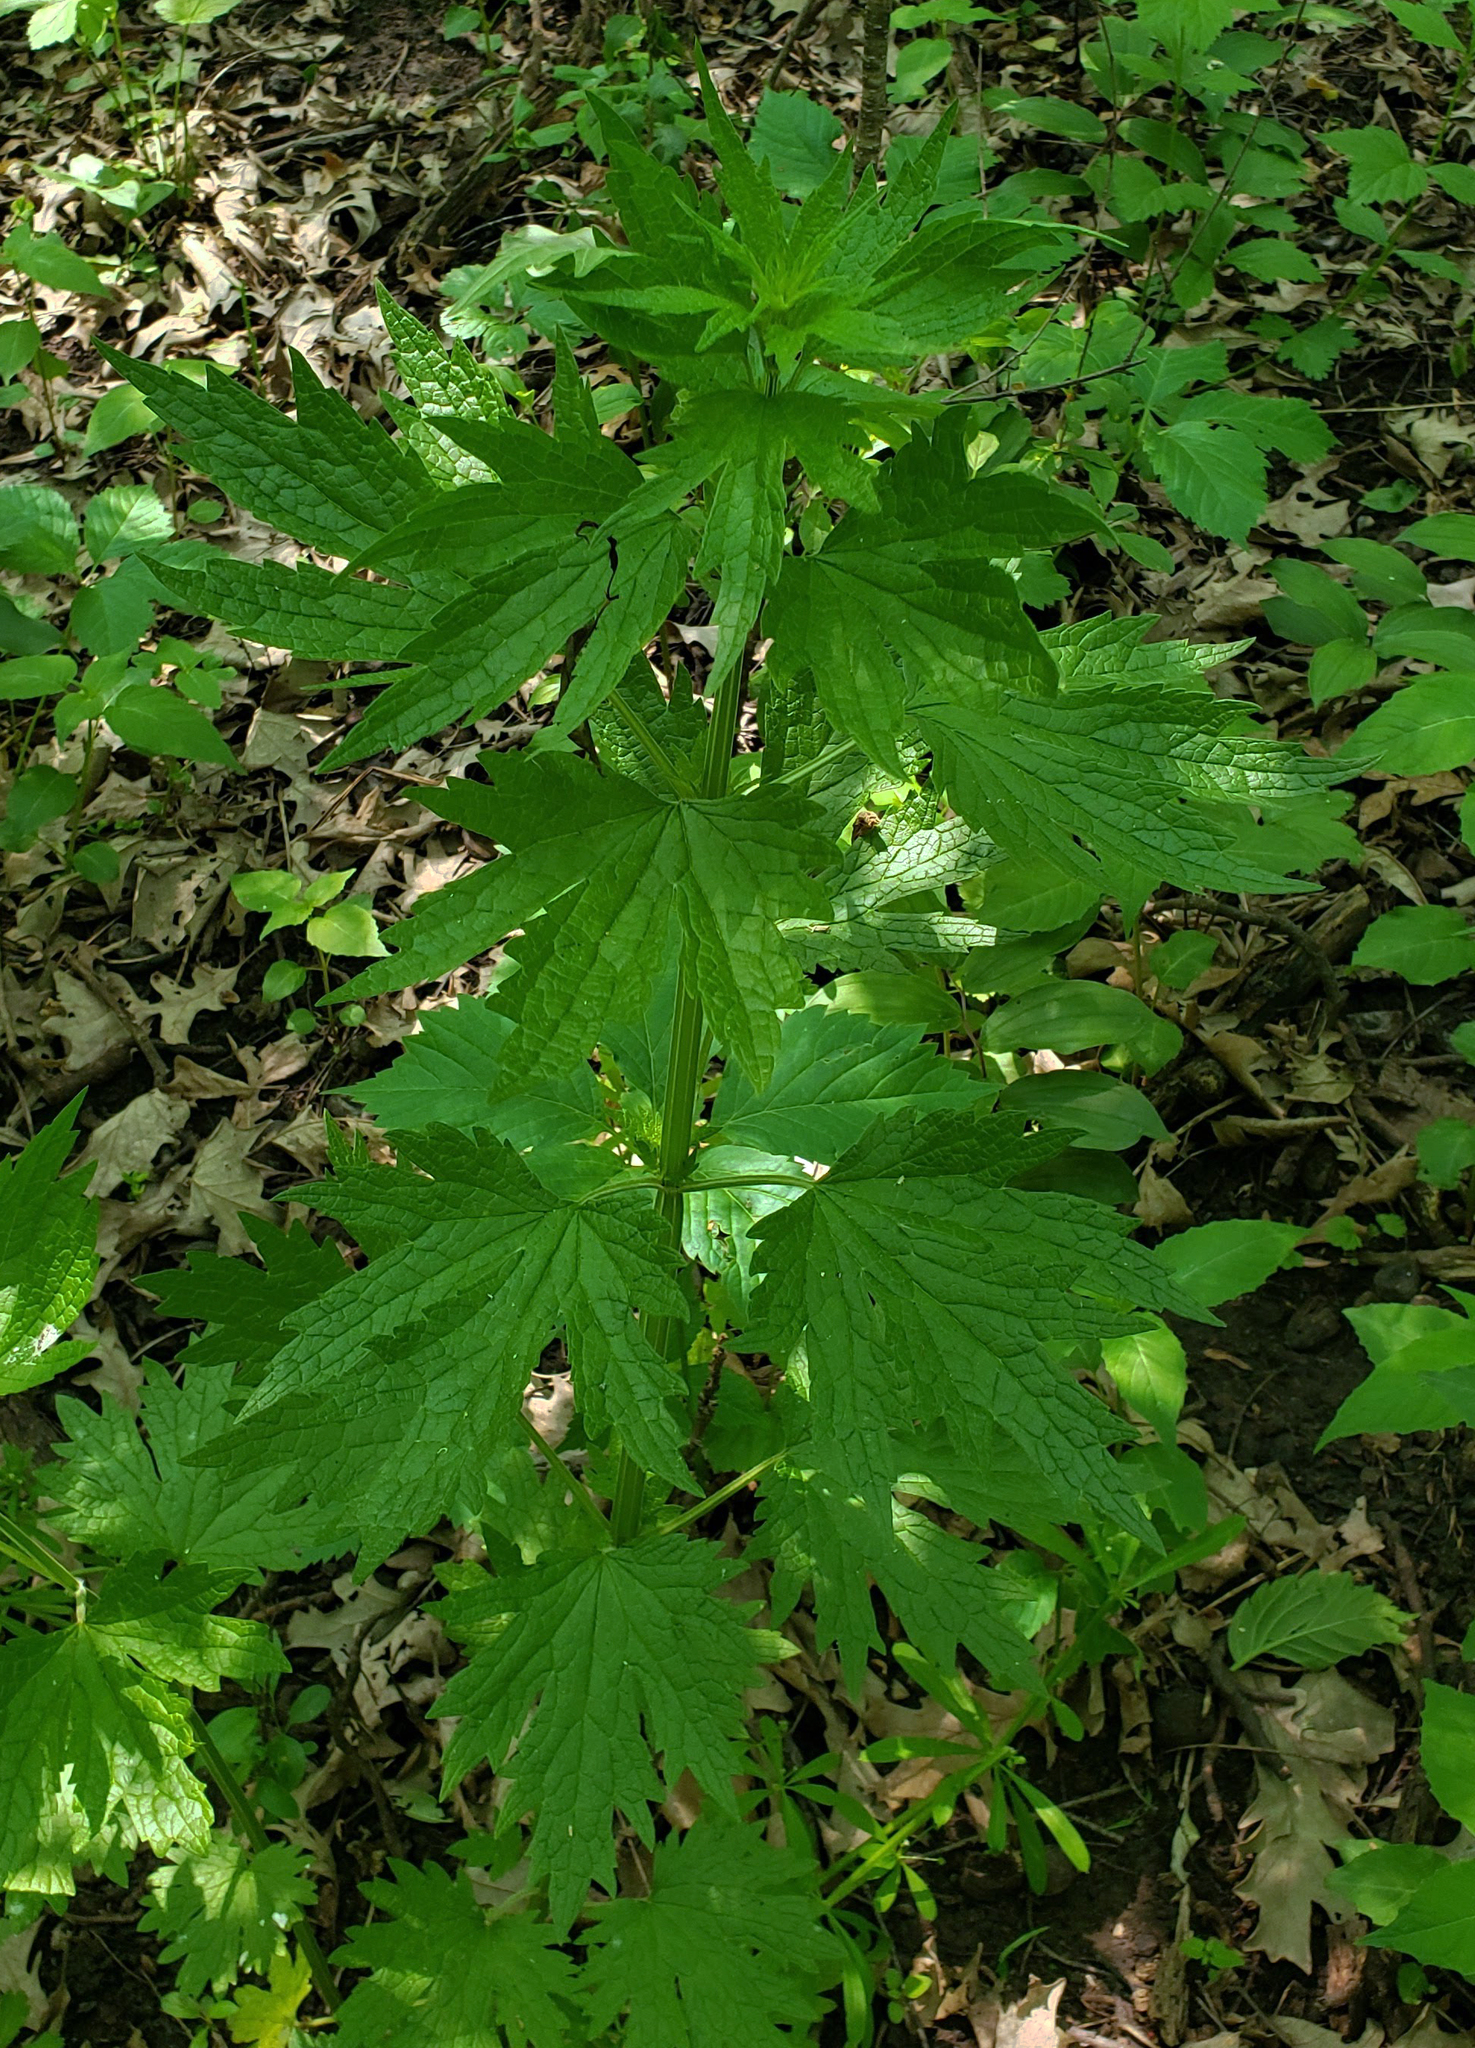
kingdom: Plantae
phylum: Tracheophyta
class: Magnoliopsida
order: Lamiales
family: Lamiaceae
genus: Leonurus
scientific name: Leonurus cardiaca
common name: Motherwort
